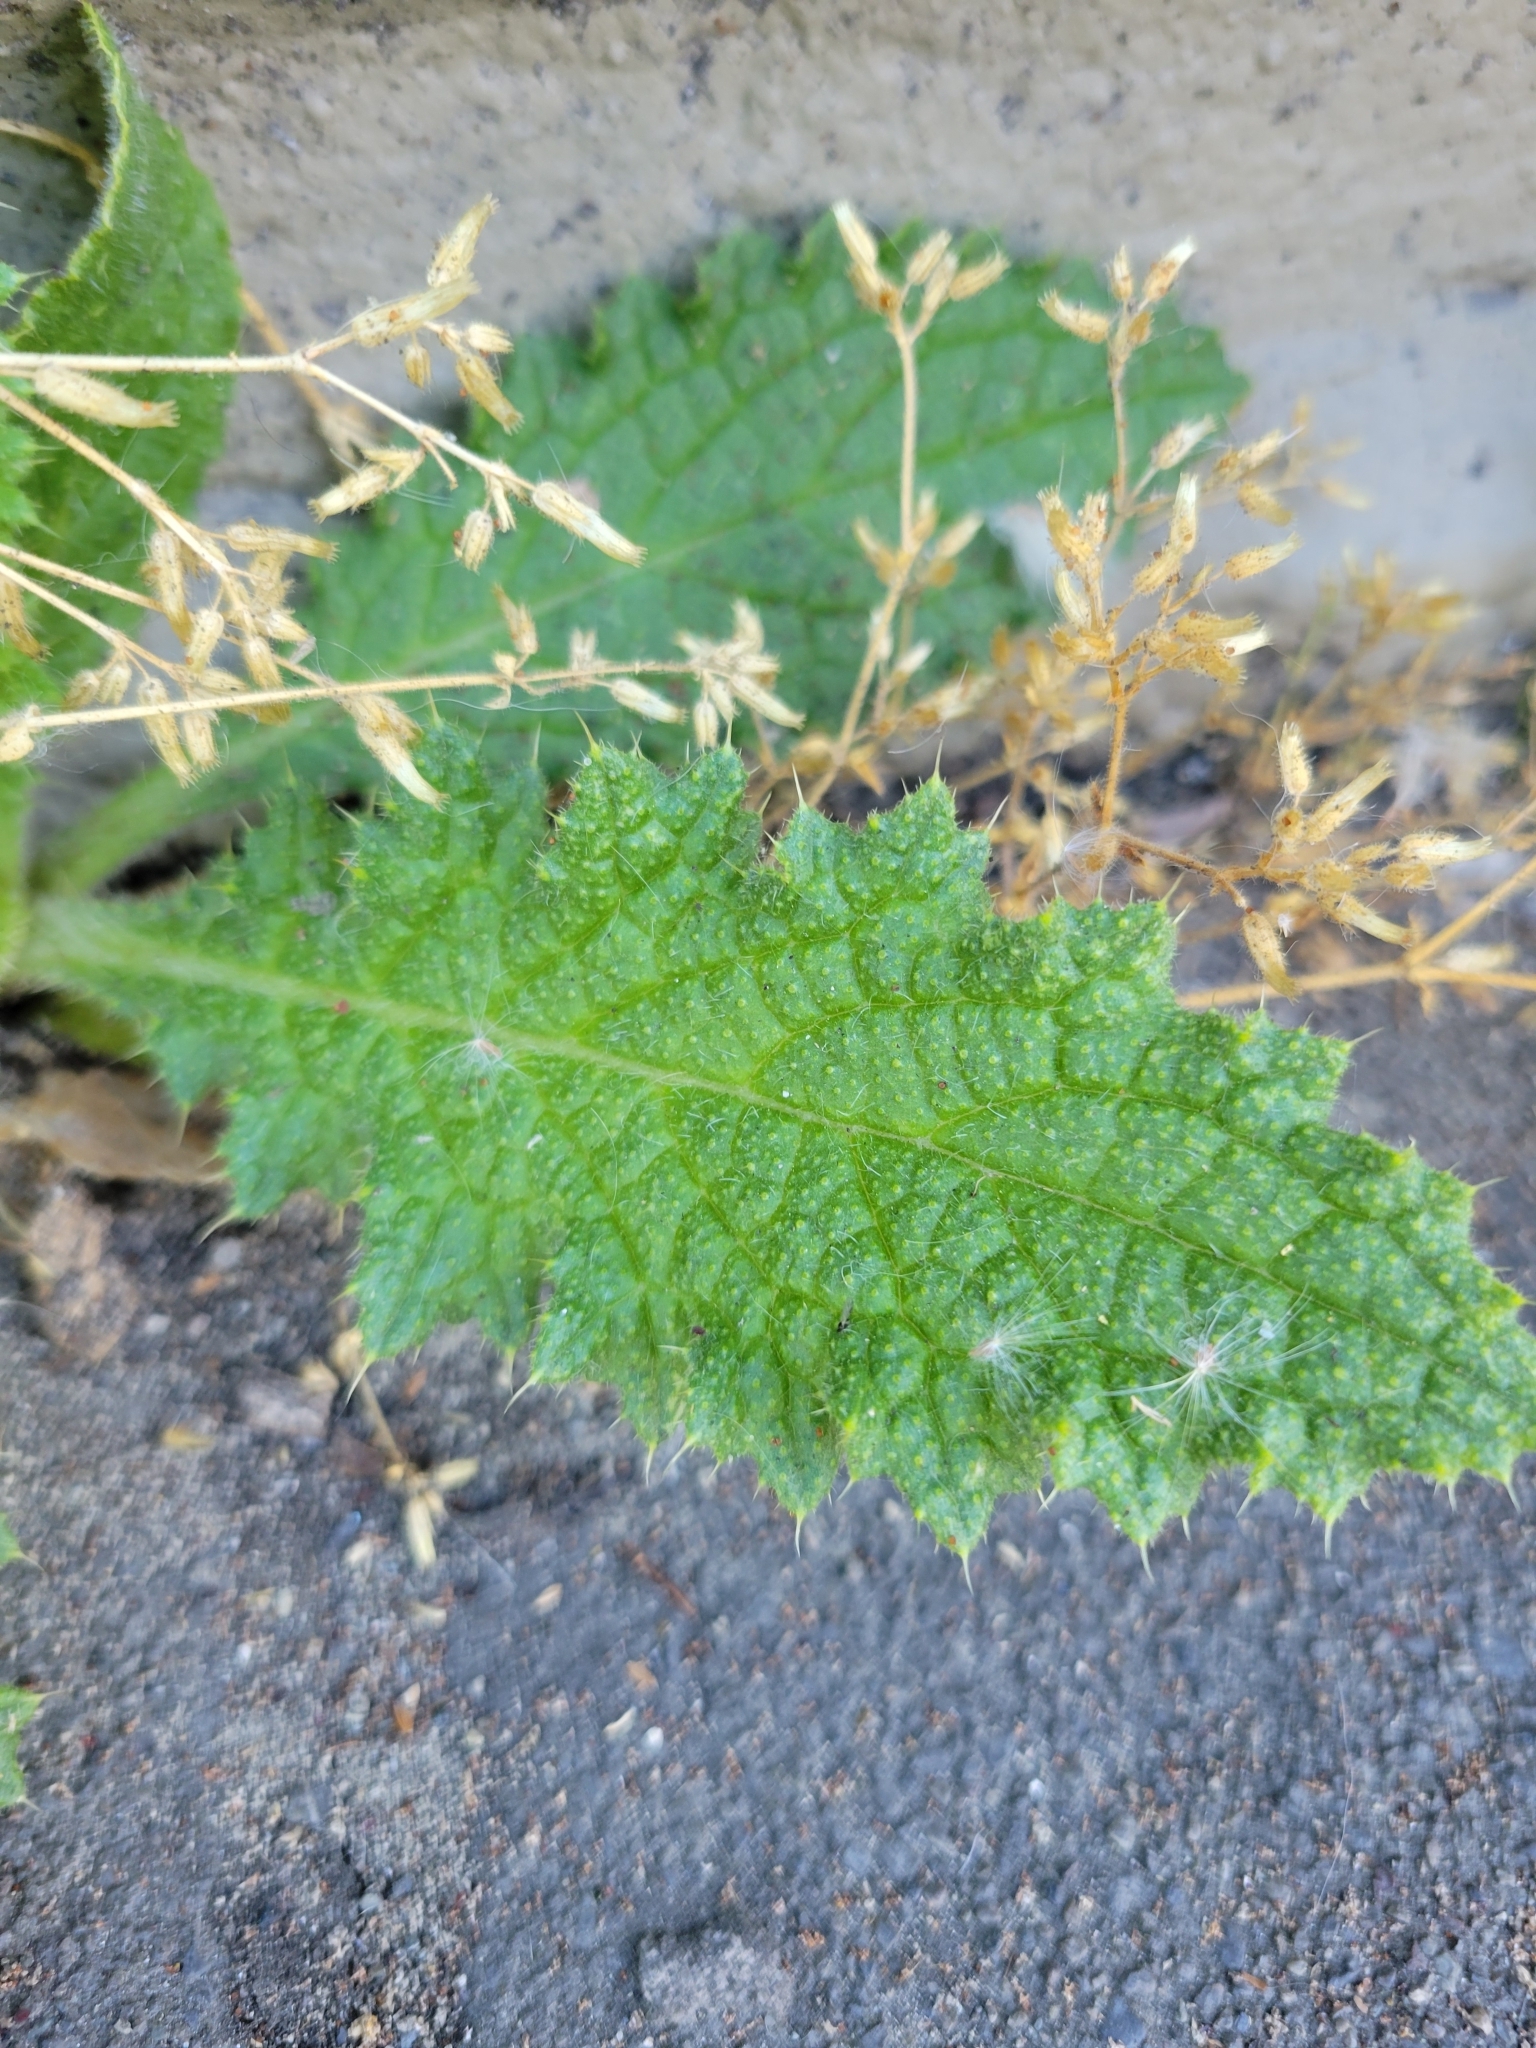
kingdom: Plantae
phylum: Tracheophyta
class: Magnoliopsida
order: Asterales
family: Asteraceae
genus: Cirsium
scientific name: Cirsium vulgare
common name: Bull thistle
